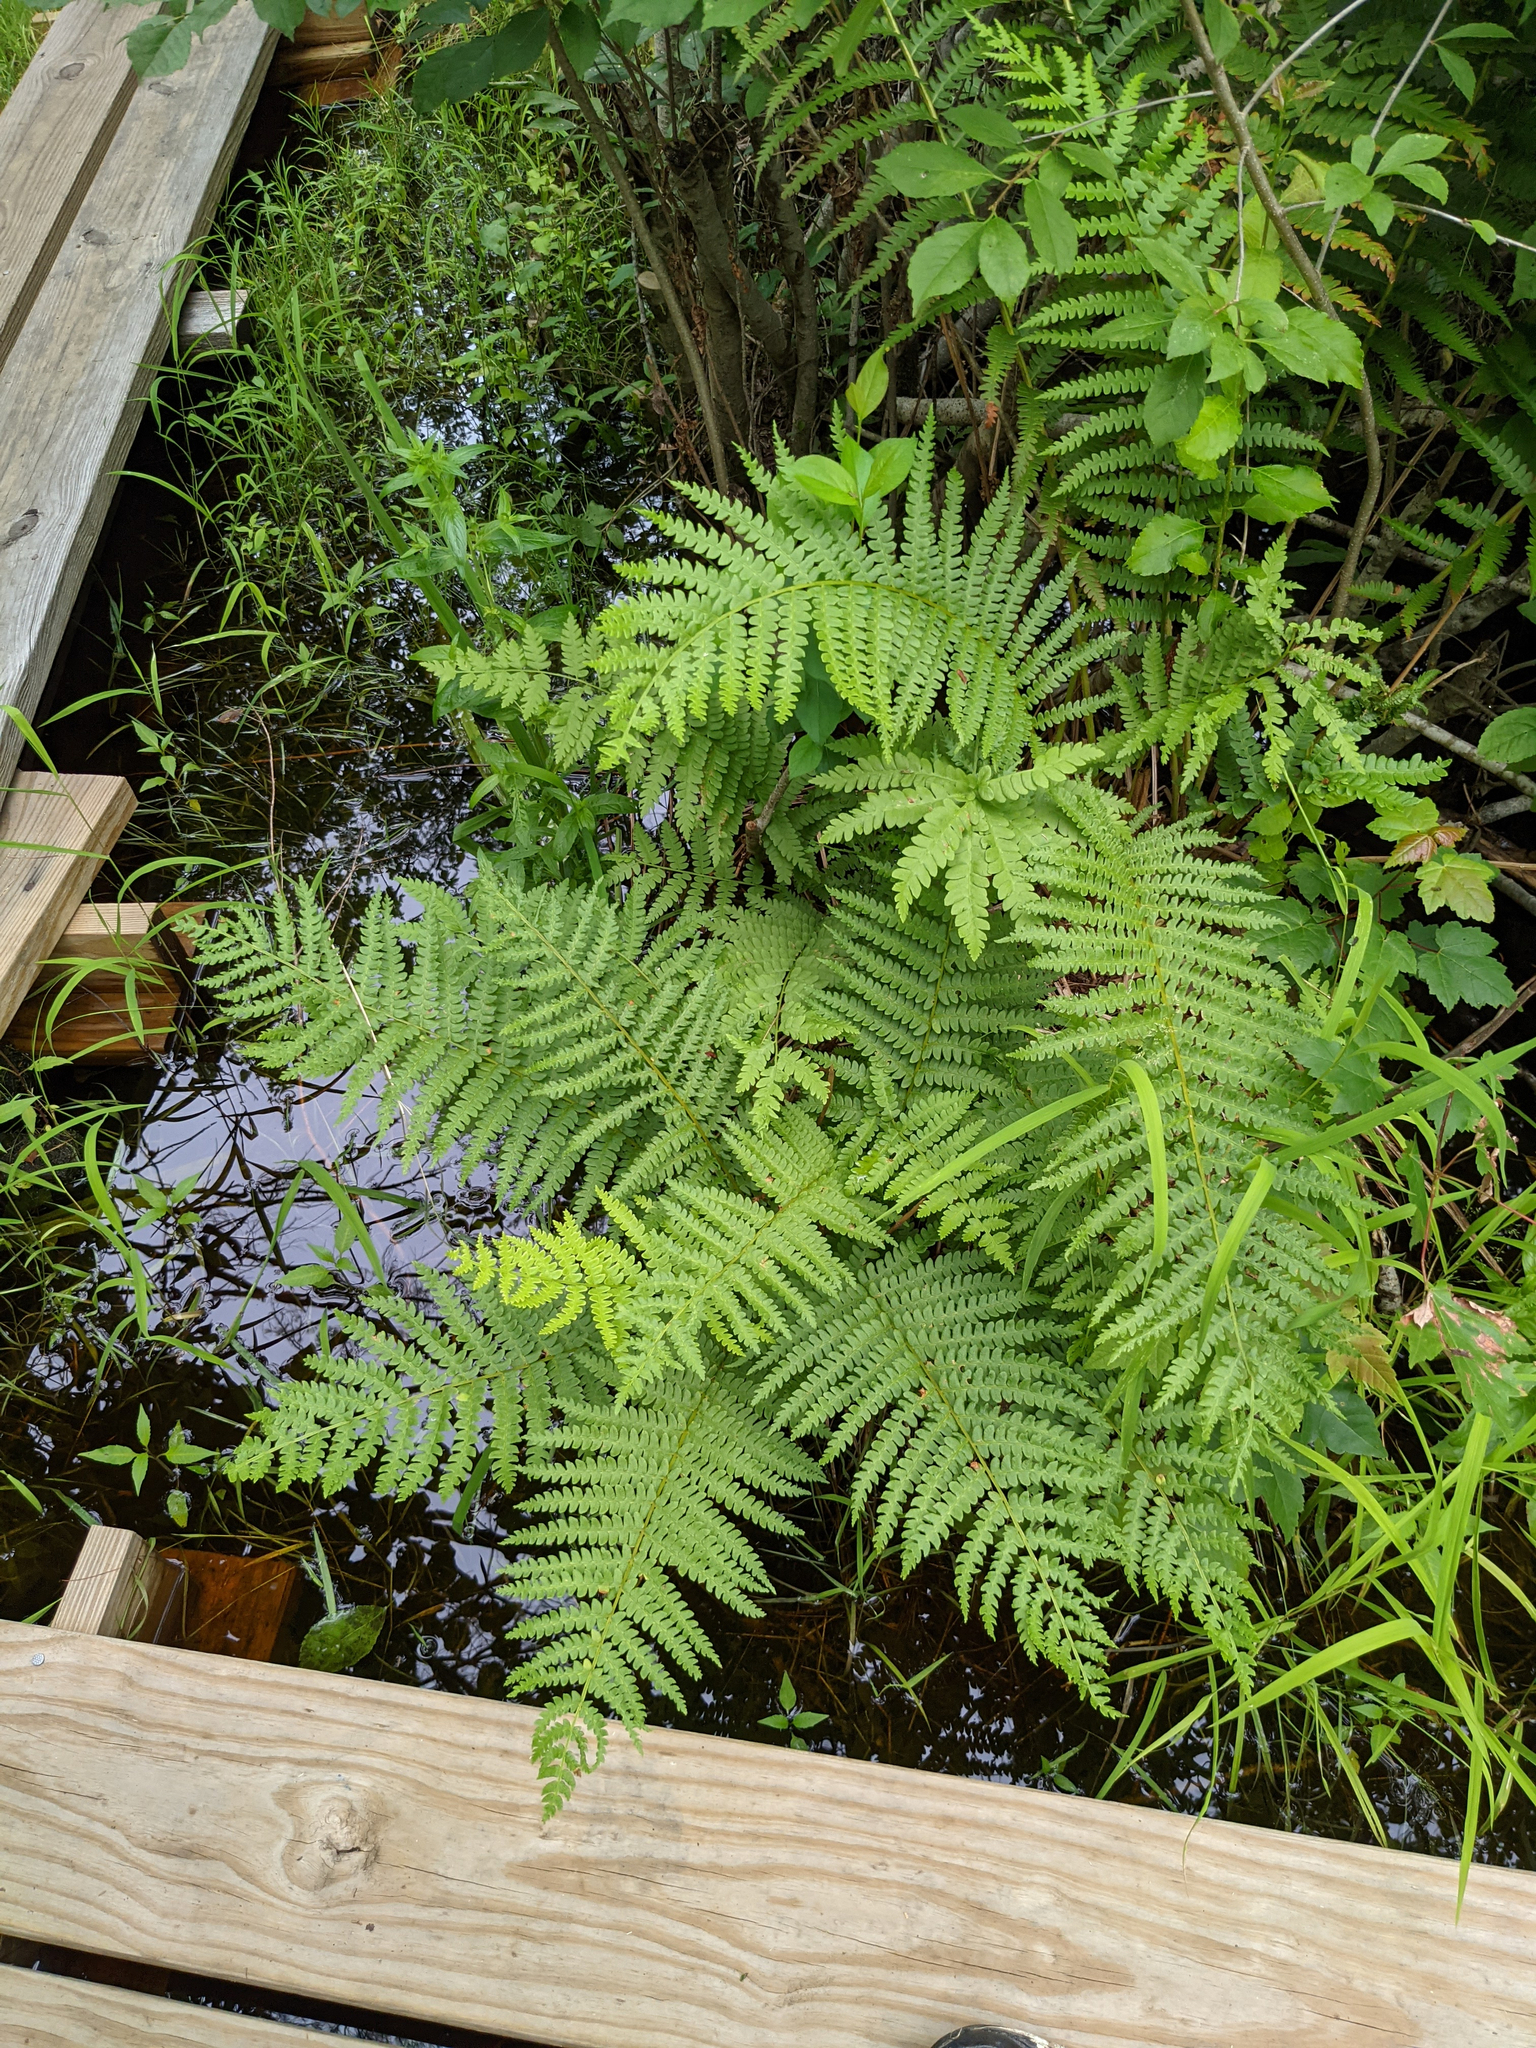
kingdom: Plantae
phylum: Tracheophyta
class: Polypodiopsida
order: Osmundales
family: Osmundaceae
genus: Osmundastrum
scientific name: Osmundastrum cinnamomeum
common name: Cinnamon fern
